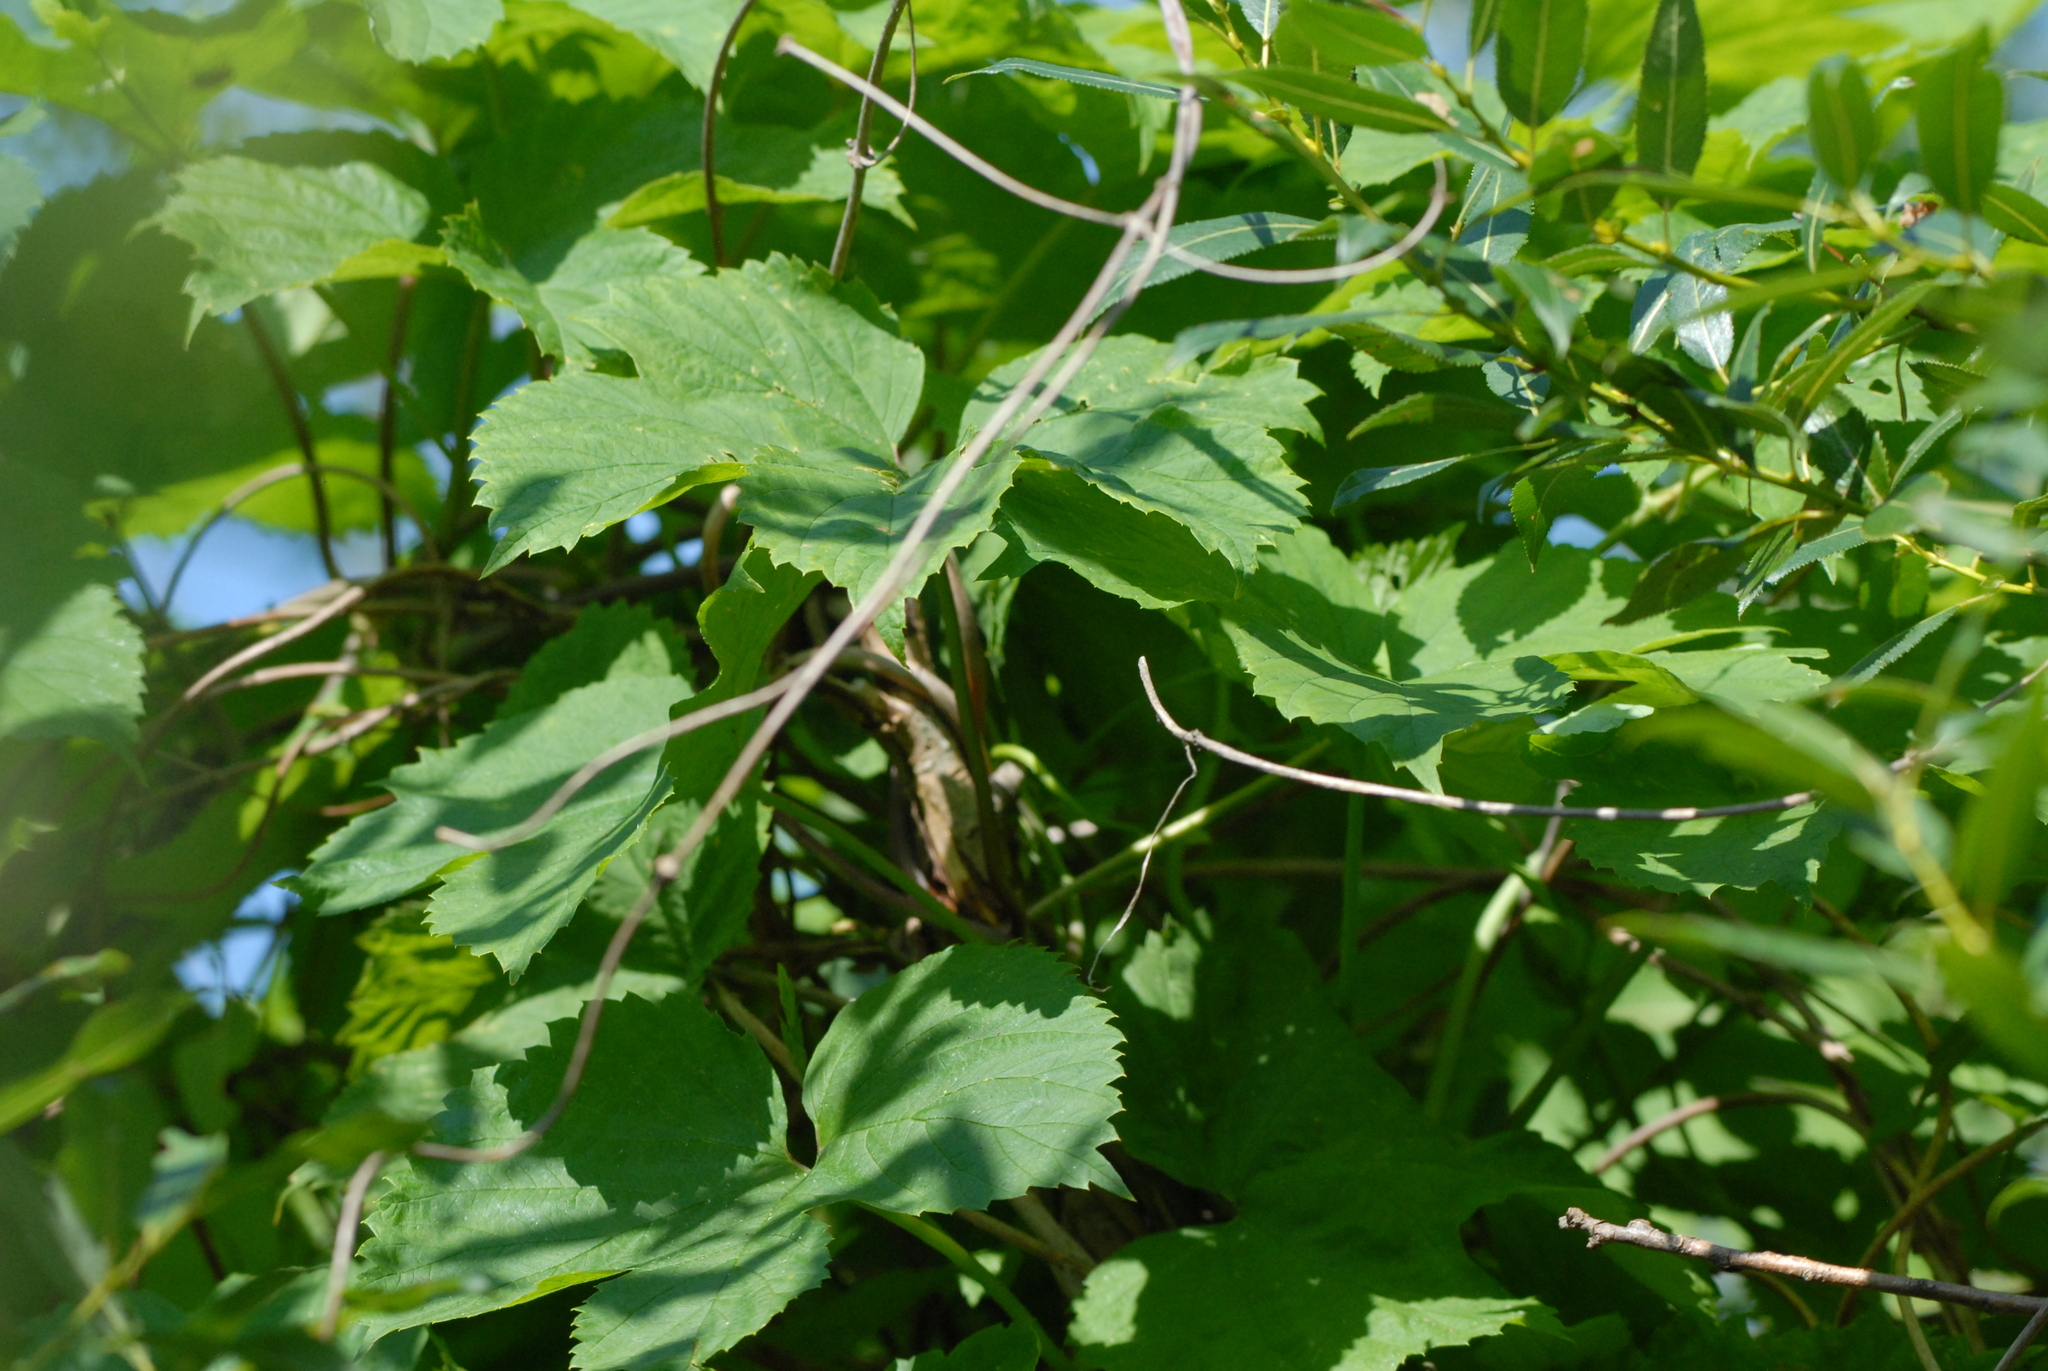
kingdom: Plantae
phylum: Tracheophyta
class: Magnoliopsida
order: Rosales
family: Cannabaceae
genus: Humulus
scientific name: Humulus lupulus
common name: Hop
